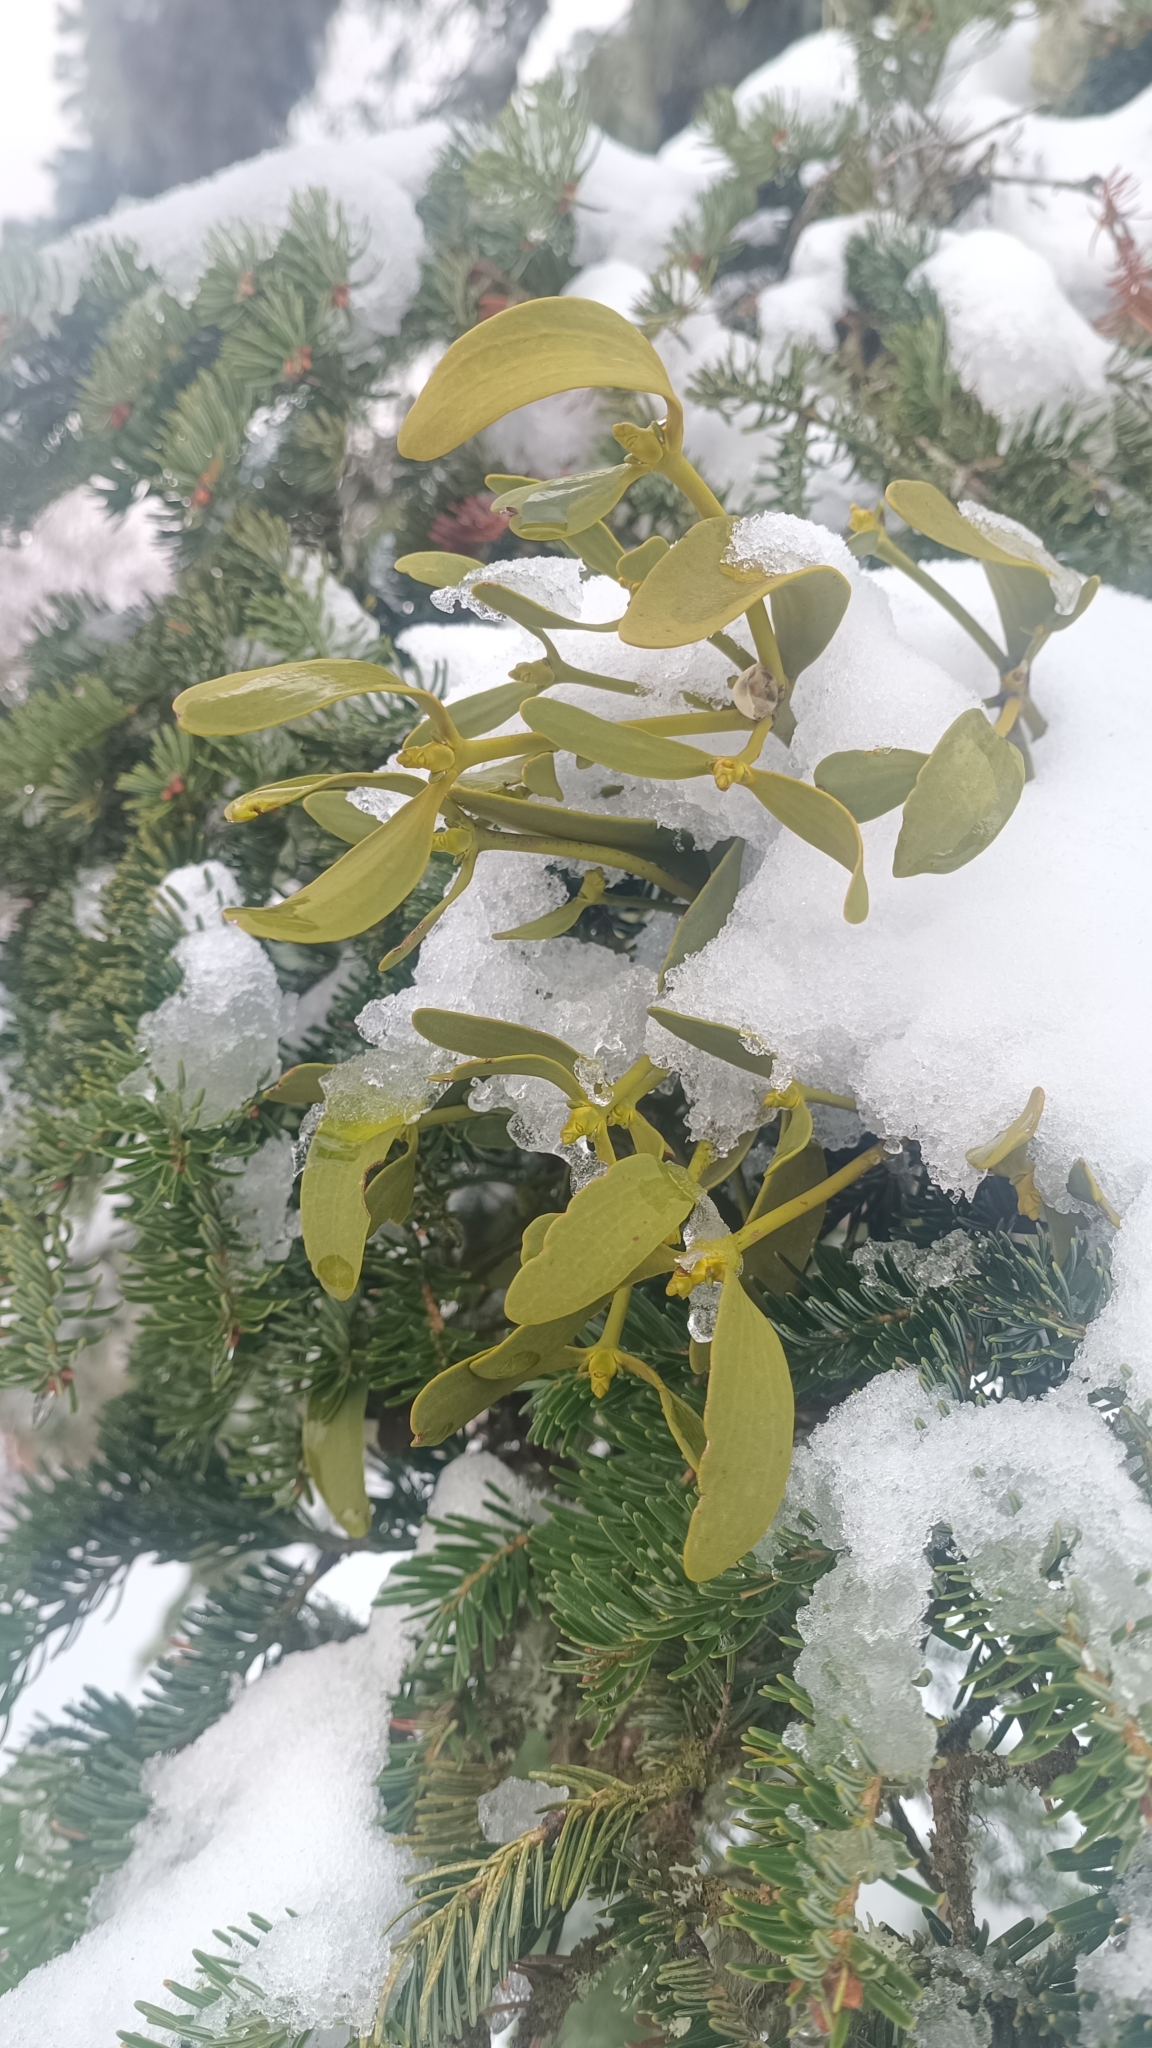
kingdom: Plantae
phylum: Tracheophyta
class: Magnoliopsida
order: Santalales
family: Viscaceae
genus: Viscum
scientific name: Viscum album
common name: Mistletoe
